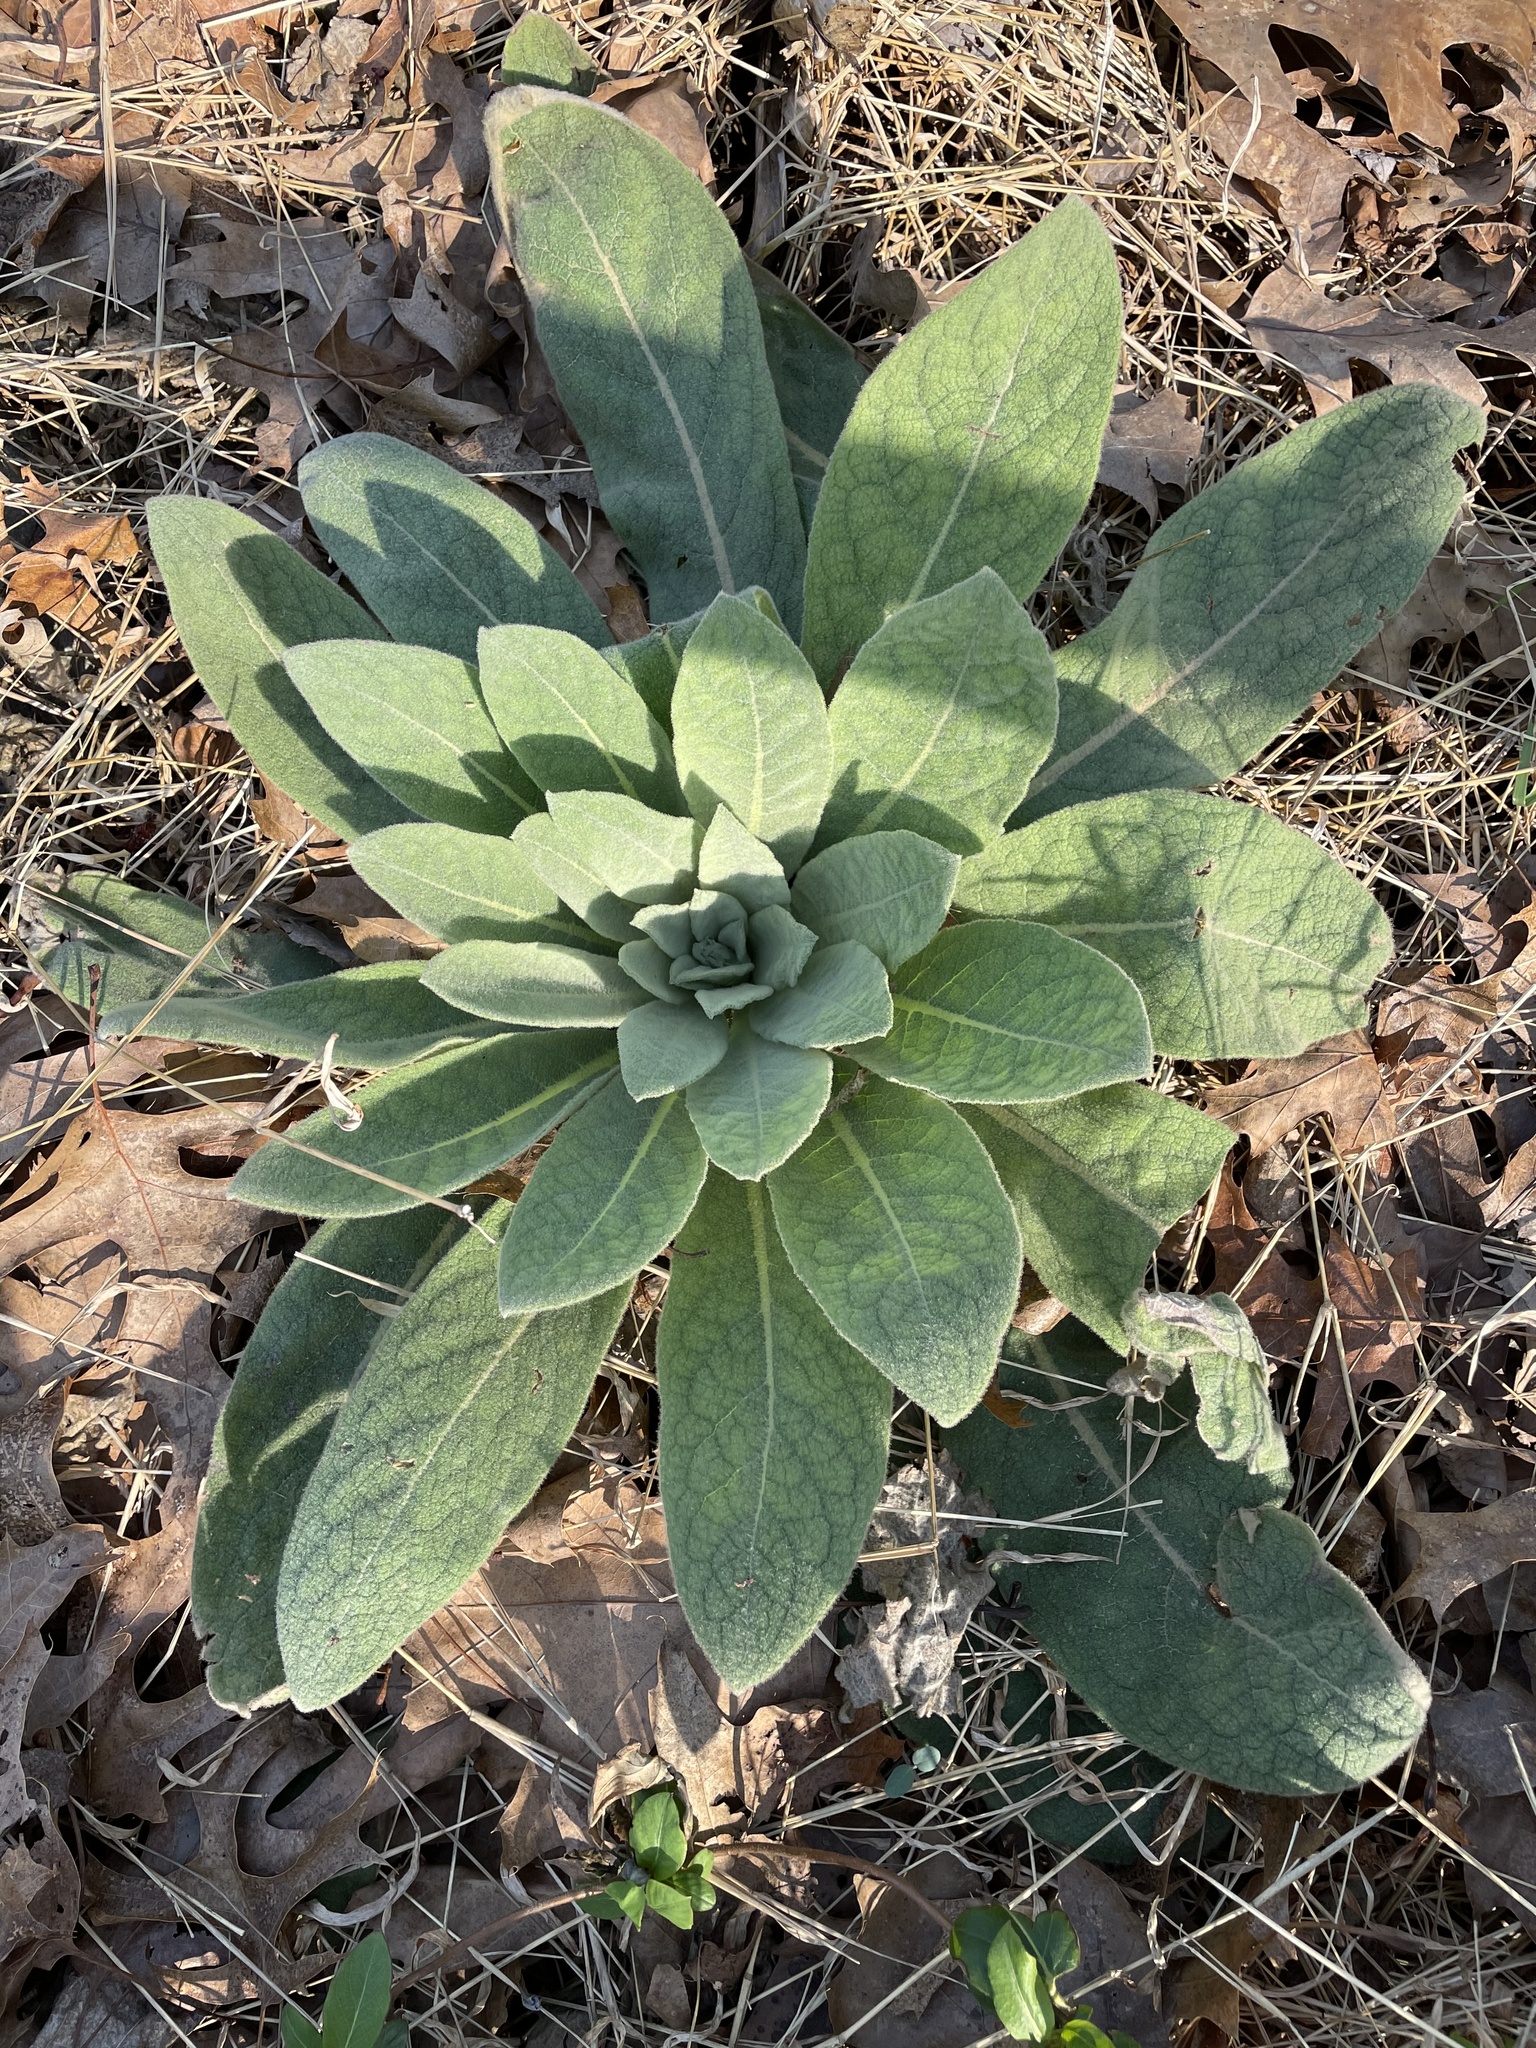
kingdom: Plantae
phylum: Tracheophyta
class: Magnoliopsida
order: Lamiales
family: Scrophulariaceae
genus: Verbascum
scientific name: Verbascum thapsus
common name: Common mullein
